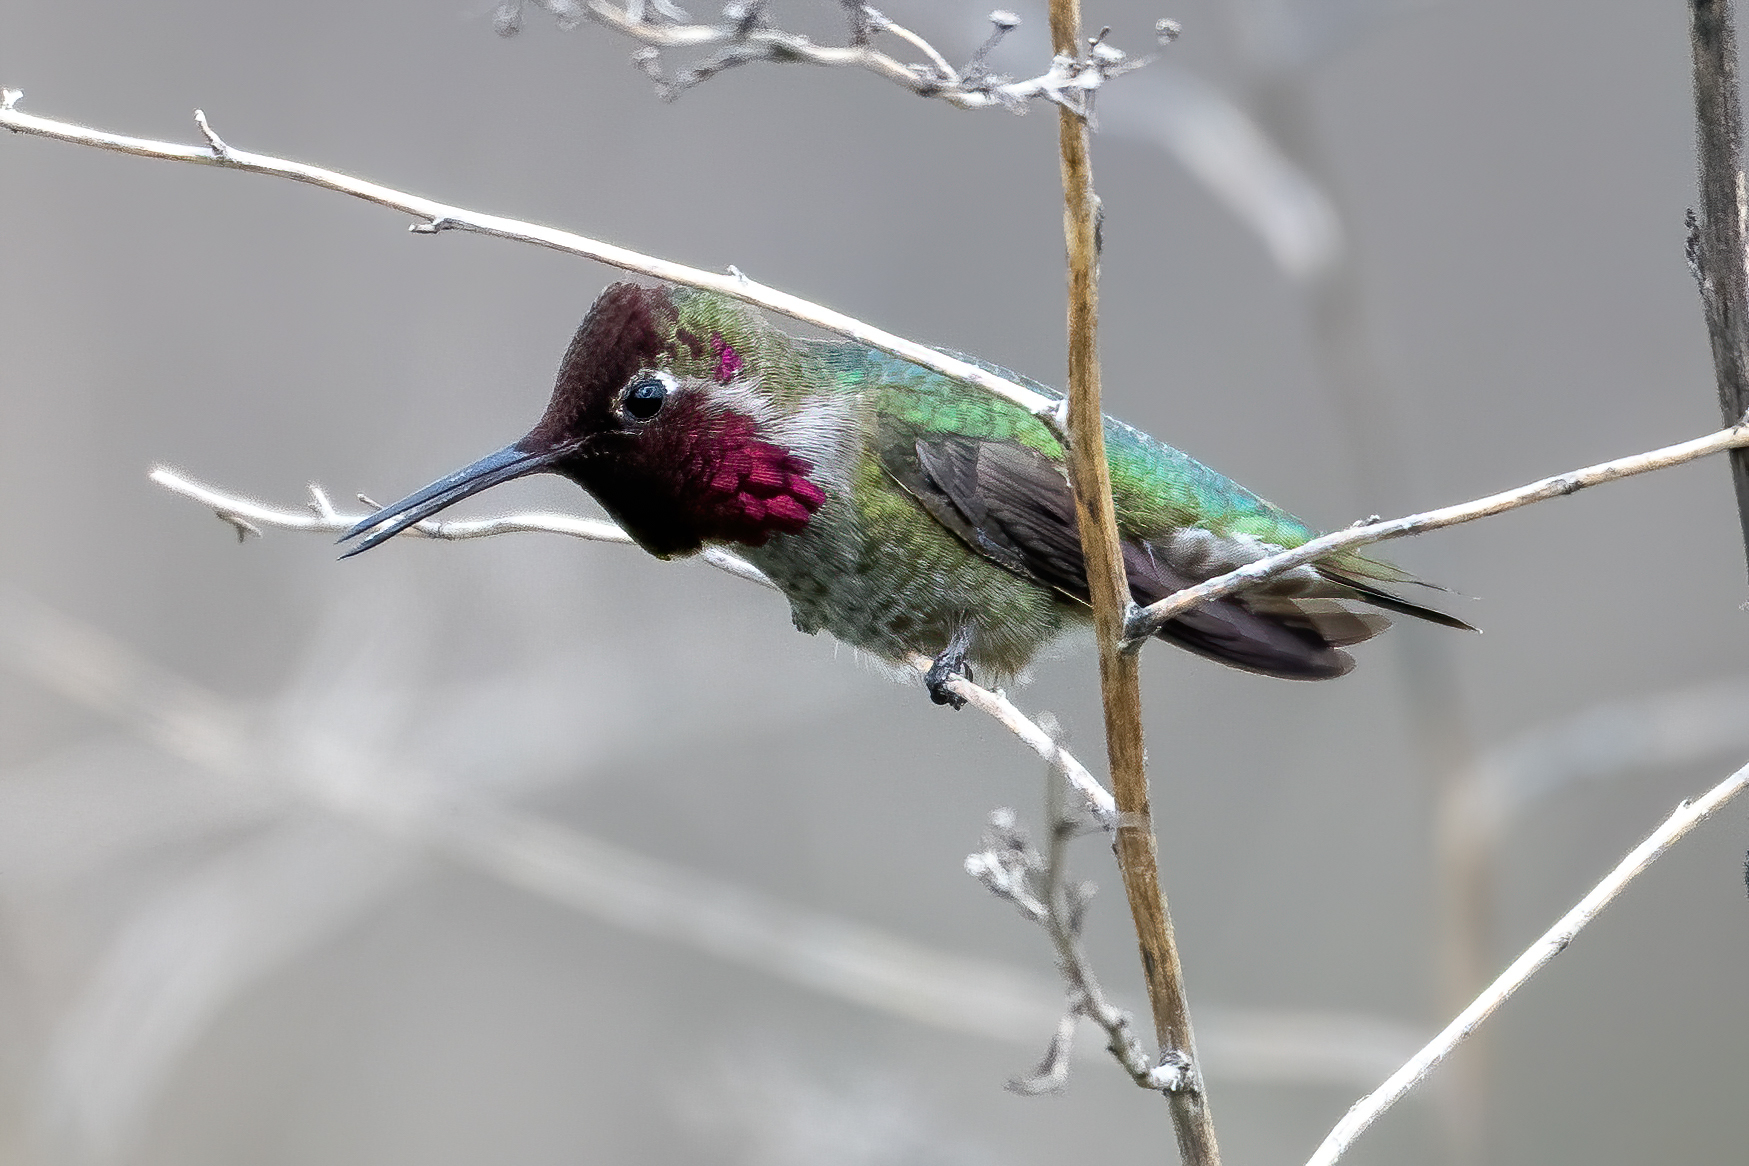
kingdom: Animalia
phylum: Chordata
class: Aves
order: Apodiformes
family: Trochilidae
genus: Calypte
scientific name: Calypte anna
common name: Anna's hummingbird
